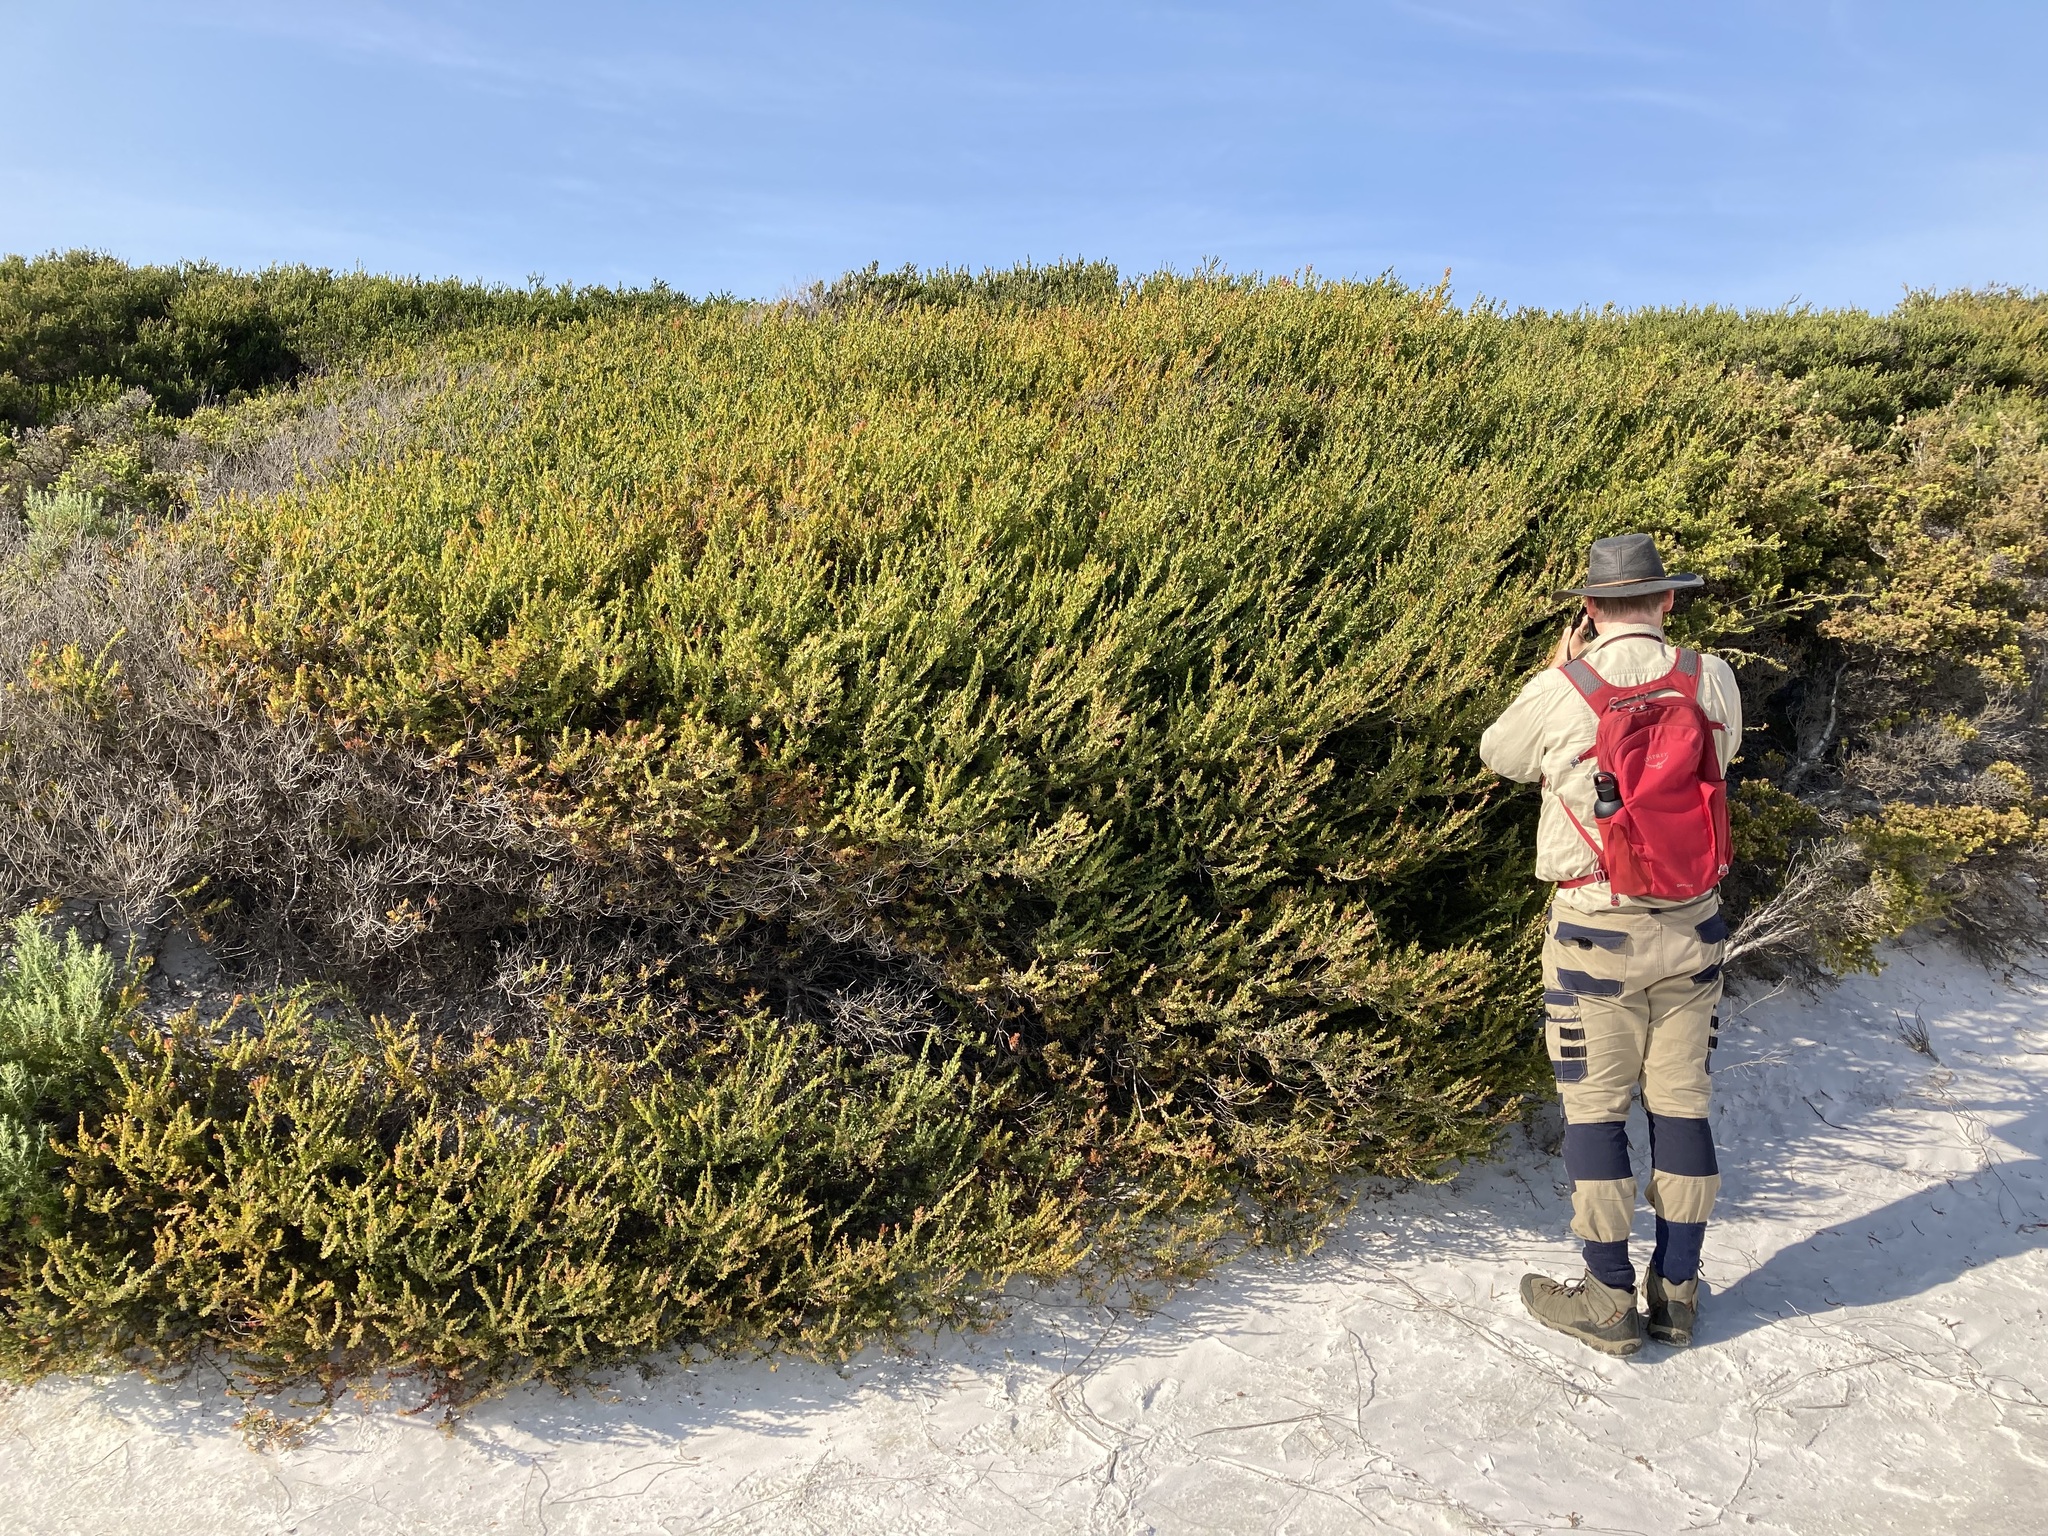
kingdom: Plantae
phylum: Tracheophyta
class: Magnoliopsida
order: Myrtales
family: Myrtaceae
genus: Melaleuca
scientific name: Melaleuca nesophila
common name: Mauve honey myrtle
